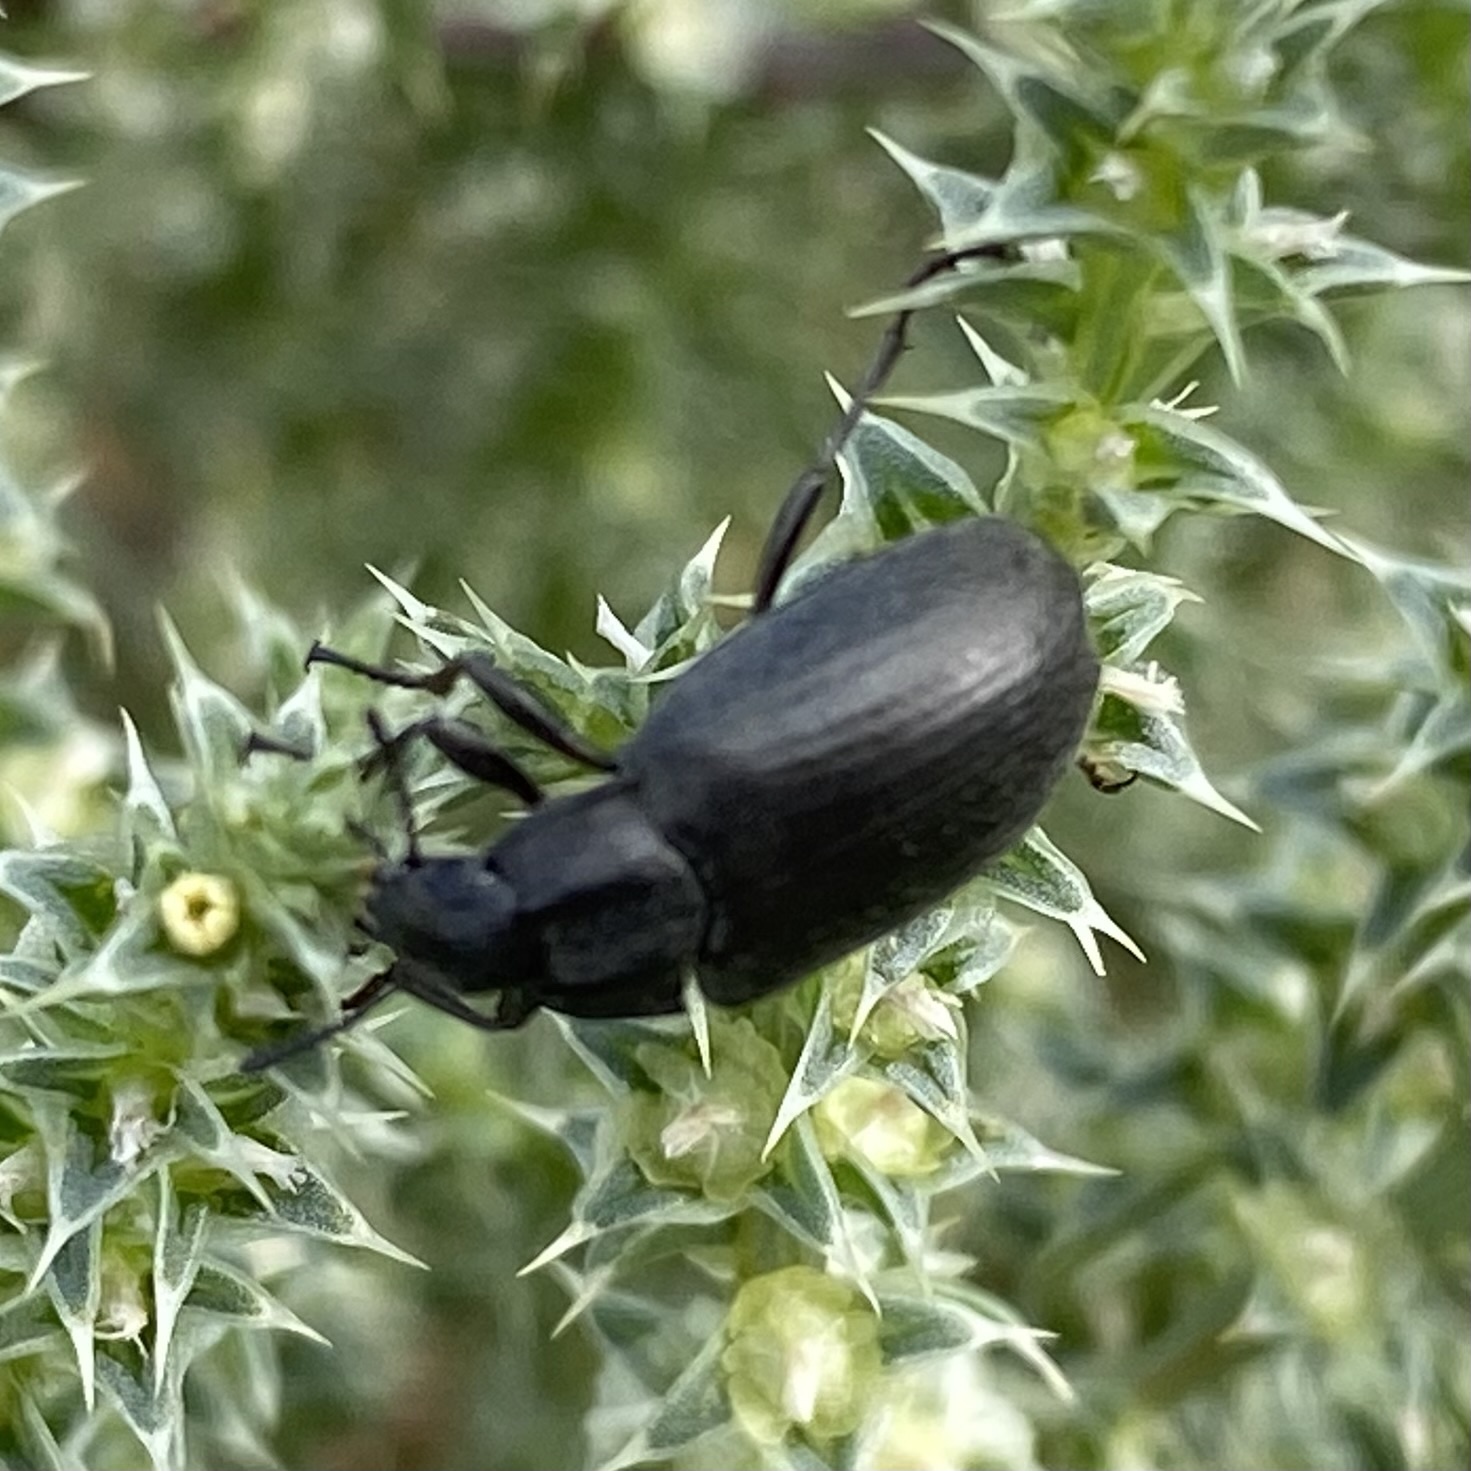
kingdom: Animalia
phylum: Arthropoda
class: Insecta
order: Coleoptera
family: Tenebrionidae
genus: Bothrotes
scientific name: Bothrotes
